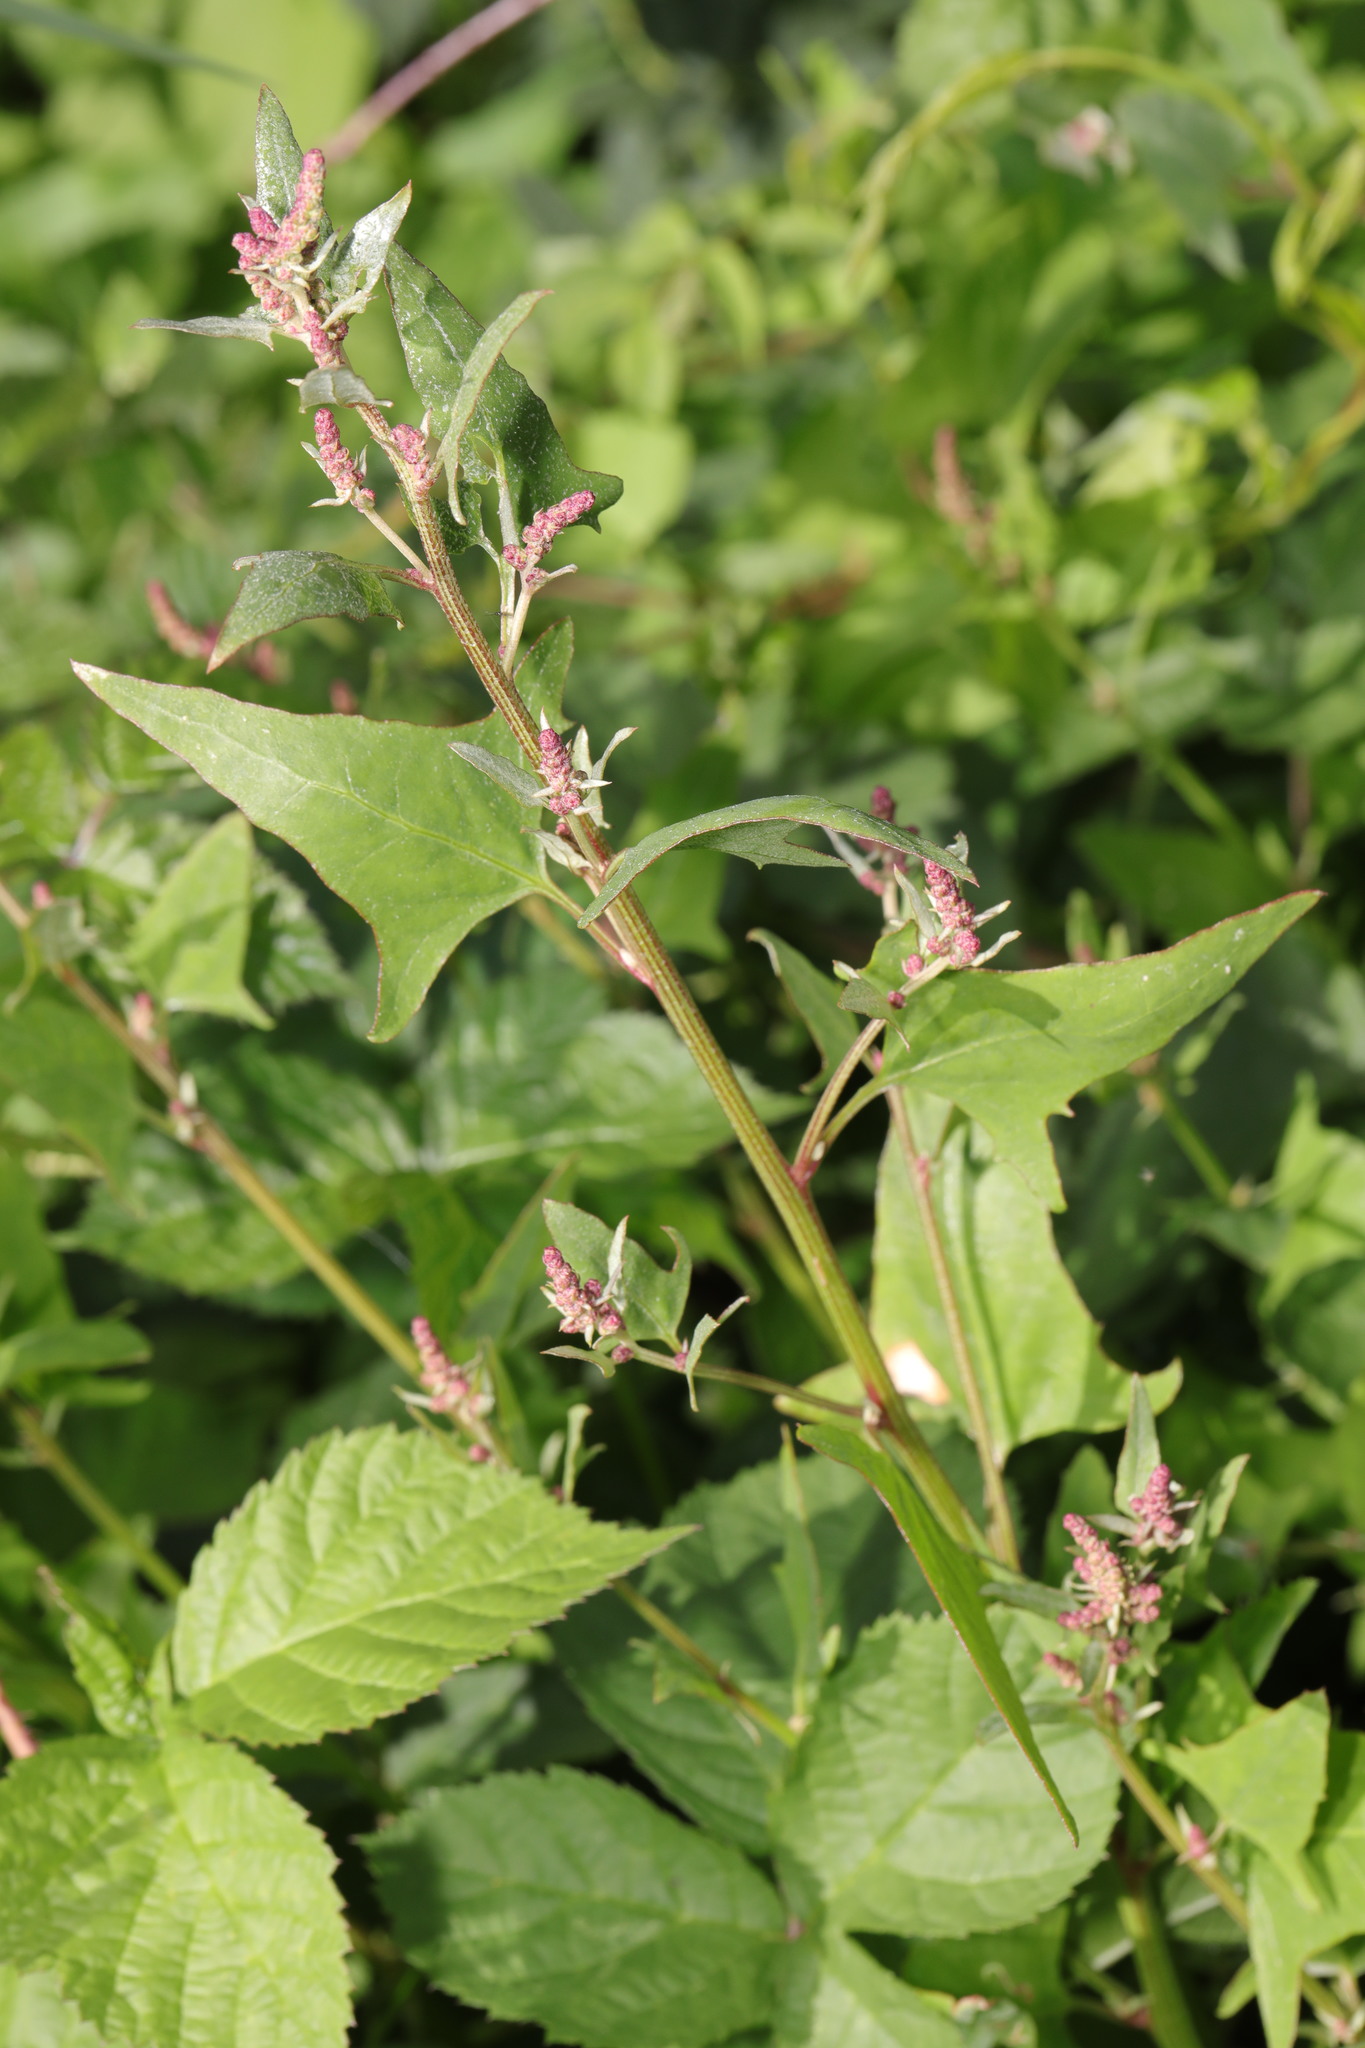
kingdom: Plantae
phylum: Tracheophyta
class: Magnoliopsida
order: Caryophyllales
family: Amaranthaceae
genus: Atriplex
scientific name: Atriplex prostrata
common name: Spear-leaved orache
